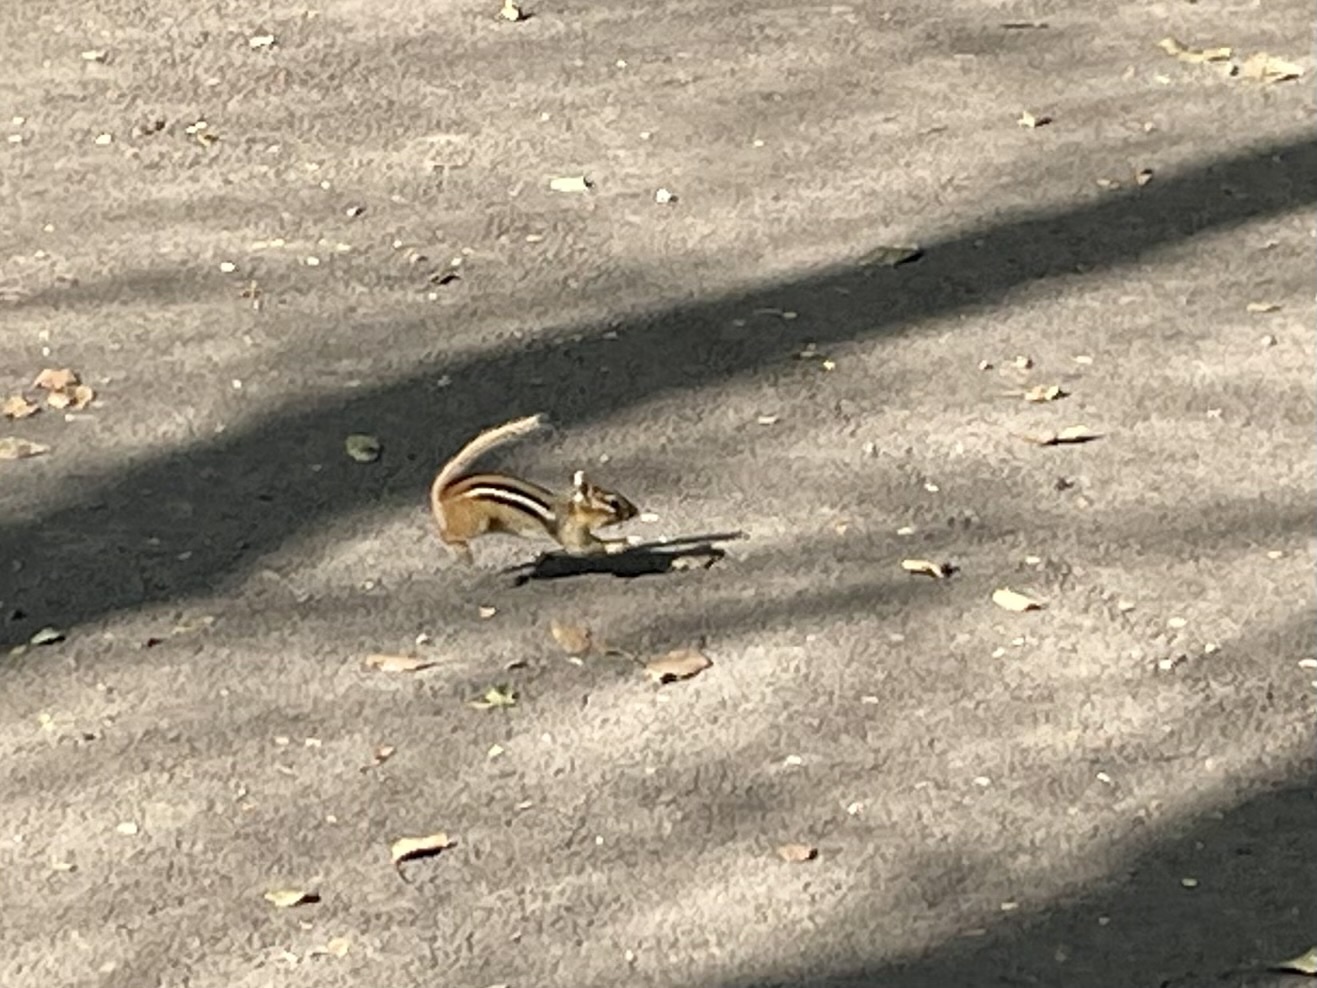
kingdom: Animalia
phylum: Chordata
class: Mammalia
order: Rodentia
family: Sciuridae
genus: Tamias
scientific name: Tamias striatus
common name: Eastern chipmunk
